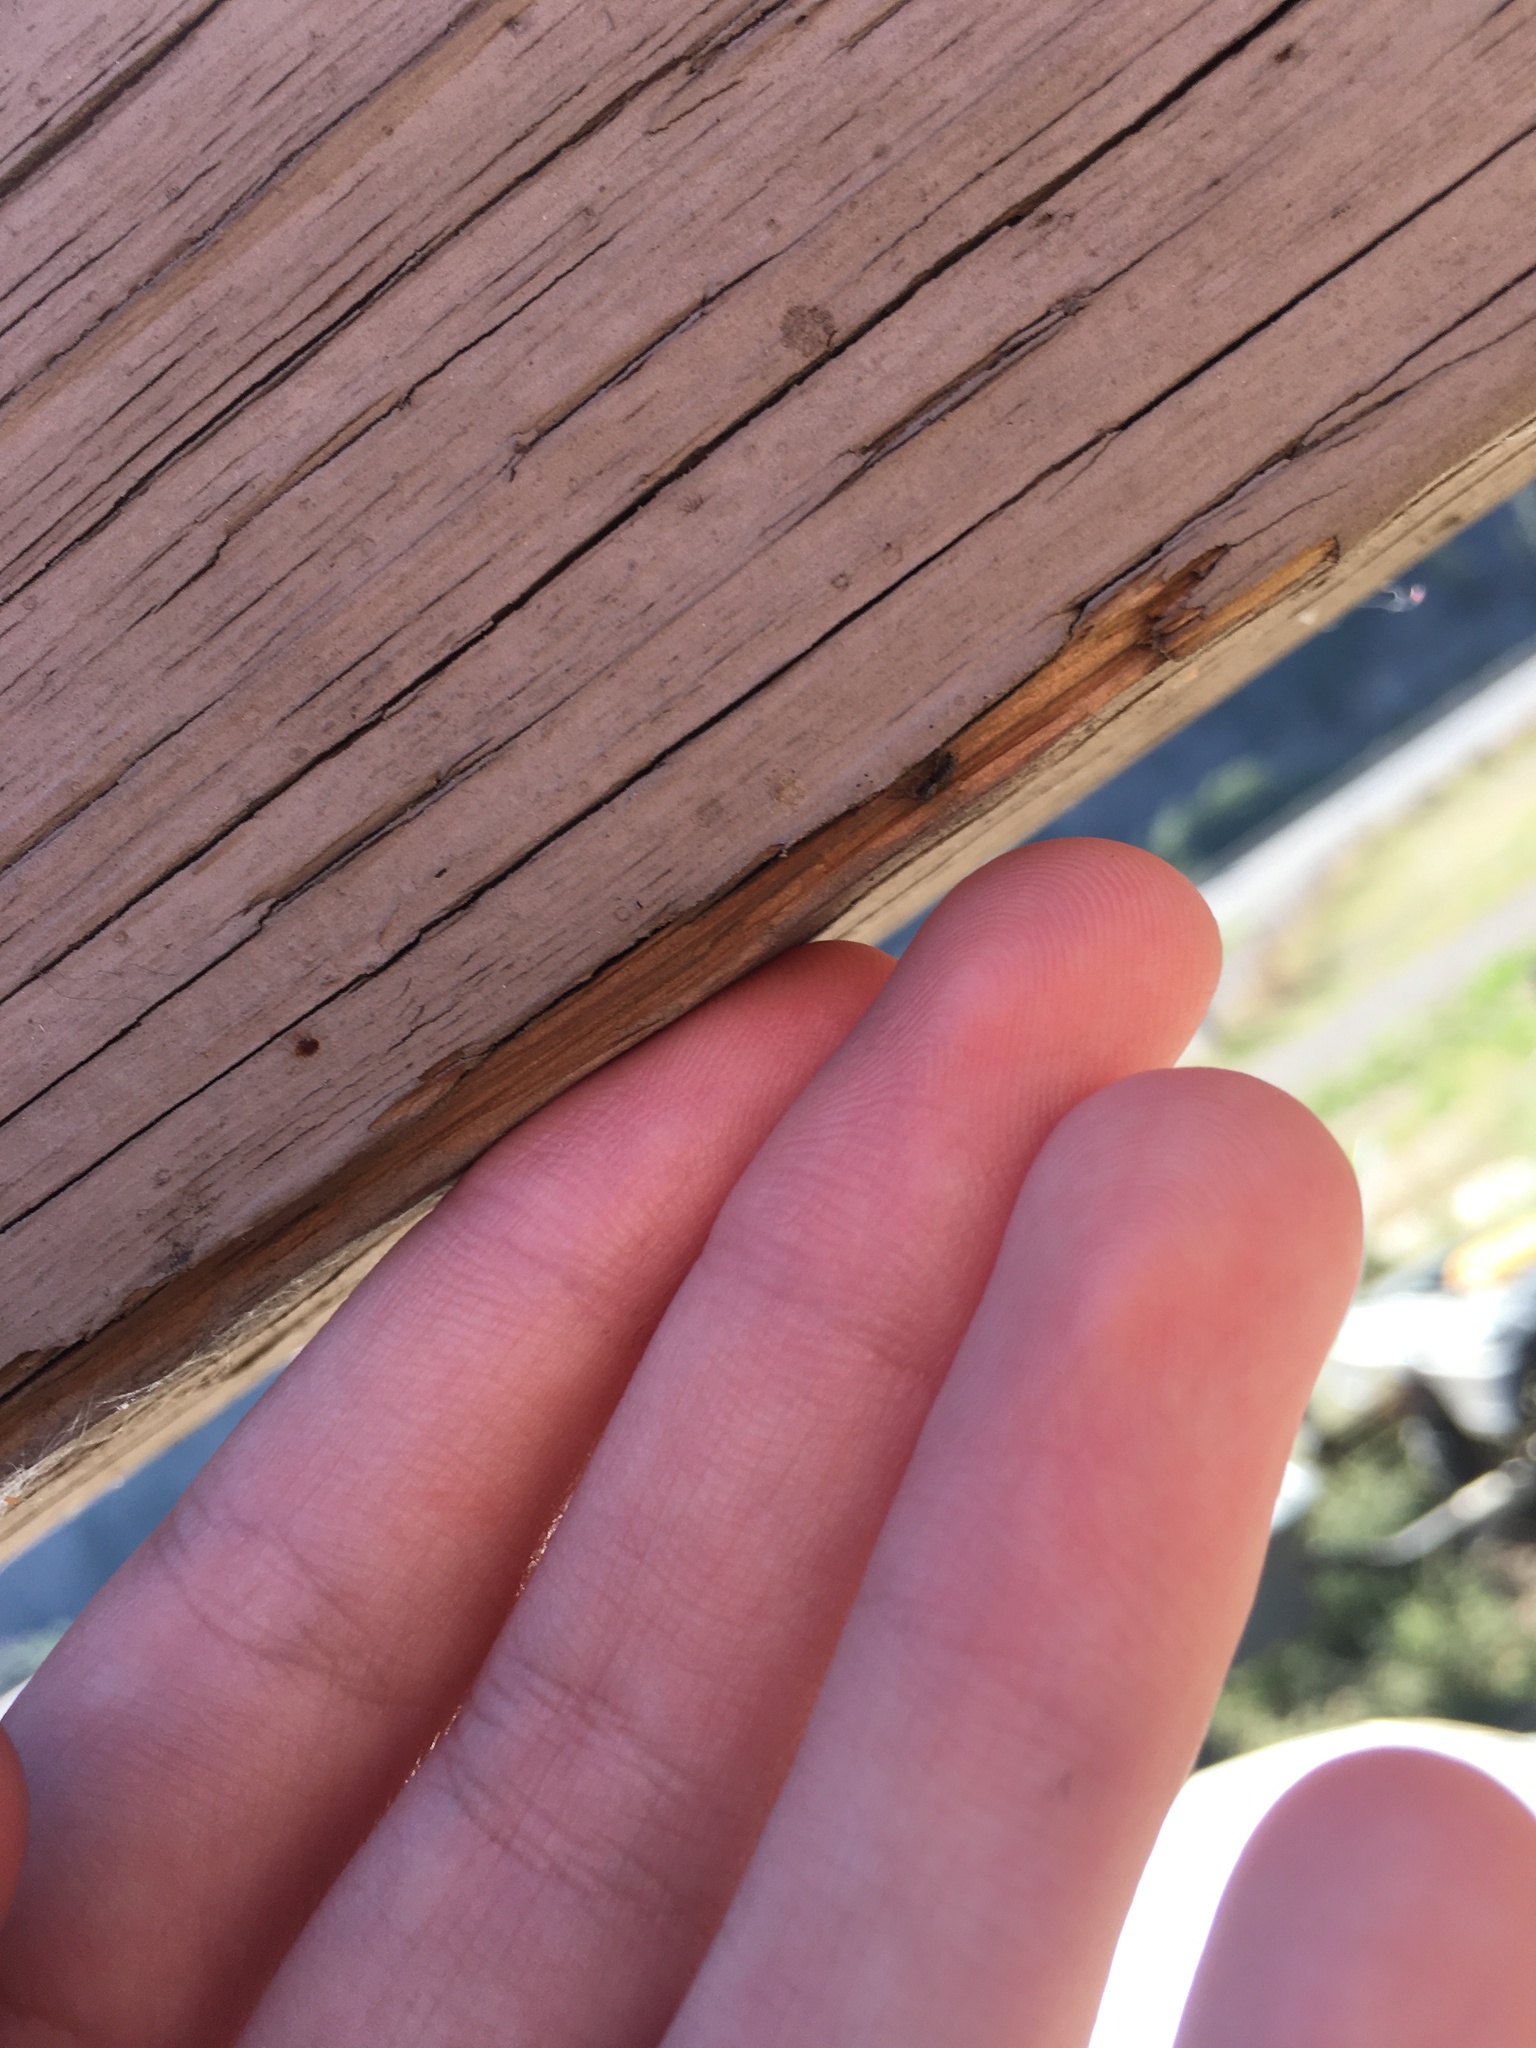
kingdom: Animalia
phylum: Arthropoda
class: Arachnida
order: Araneae
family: Salticidae
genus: Platycryptus
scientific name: Platycryptus californicus
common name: Jumping spiders
